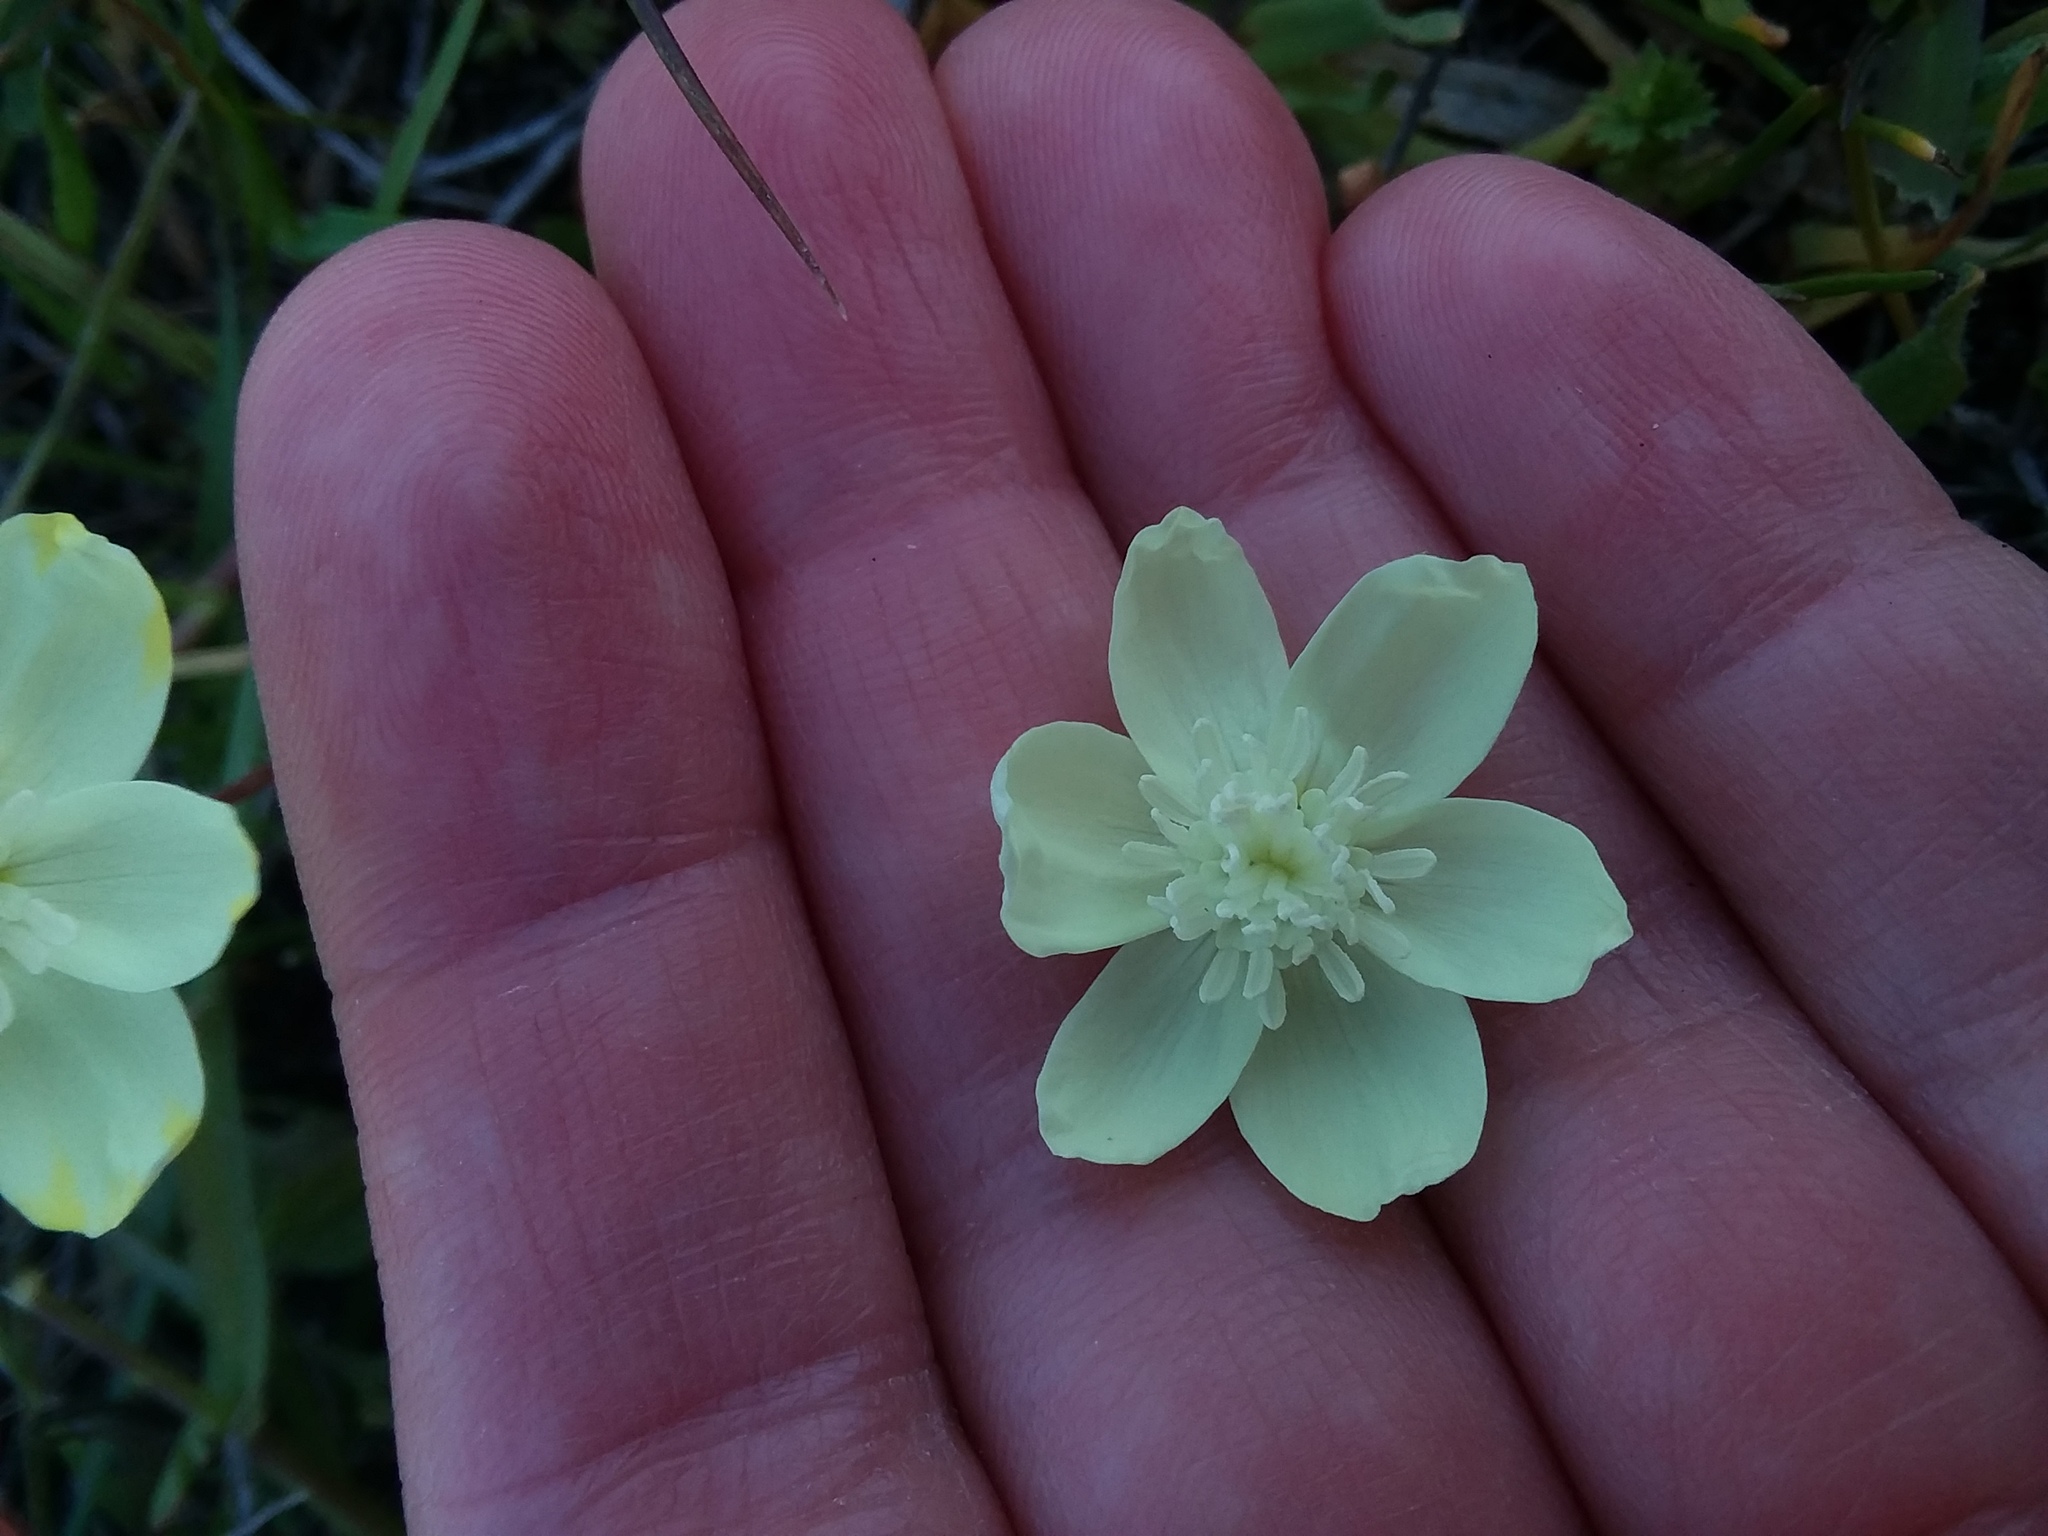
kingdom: Plantae
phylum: Tracheophyta
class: Magnoliopsida
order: Ranunculales
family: Papaveraceae
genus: Platystemon
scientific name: Platystemon californicus
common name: Cream-cups
